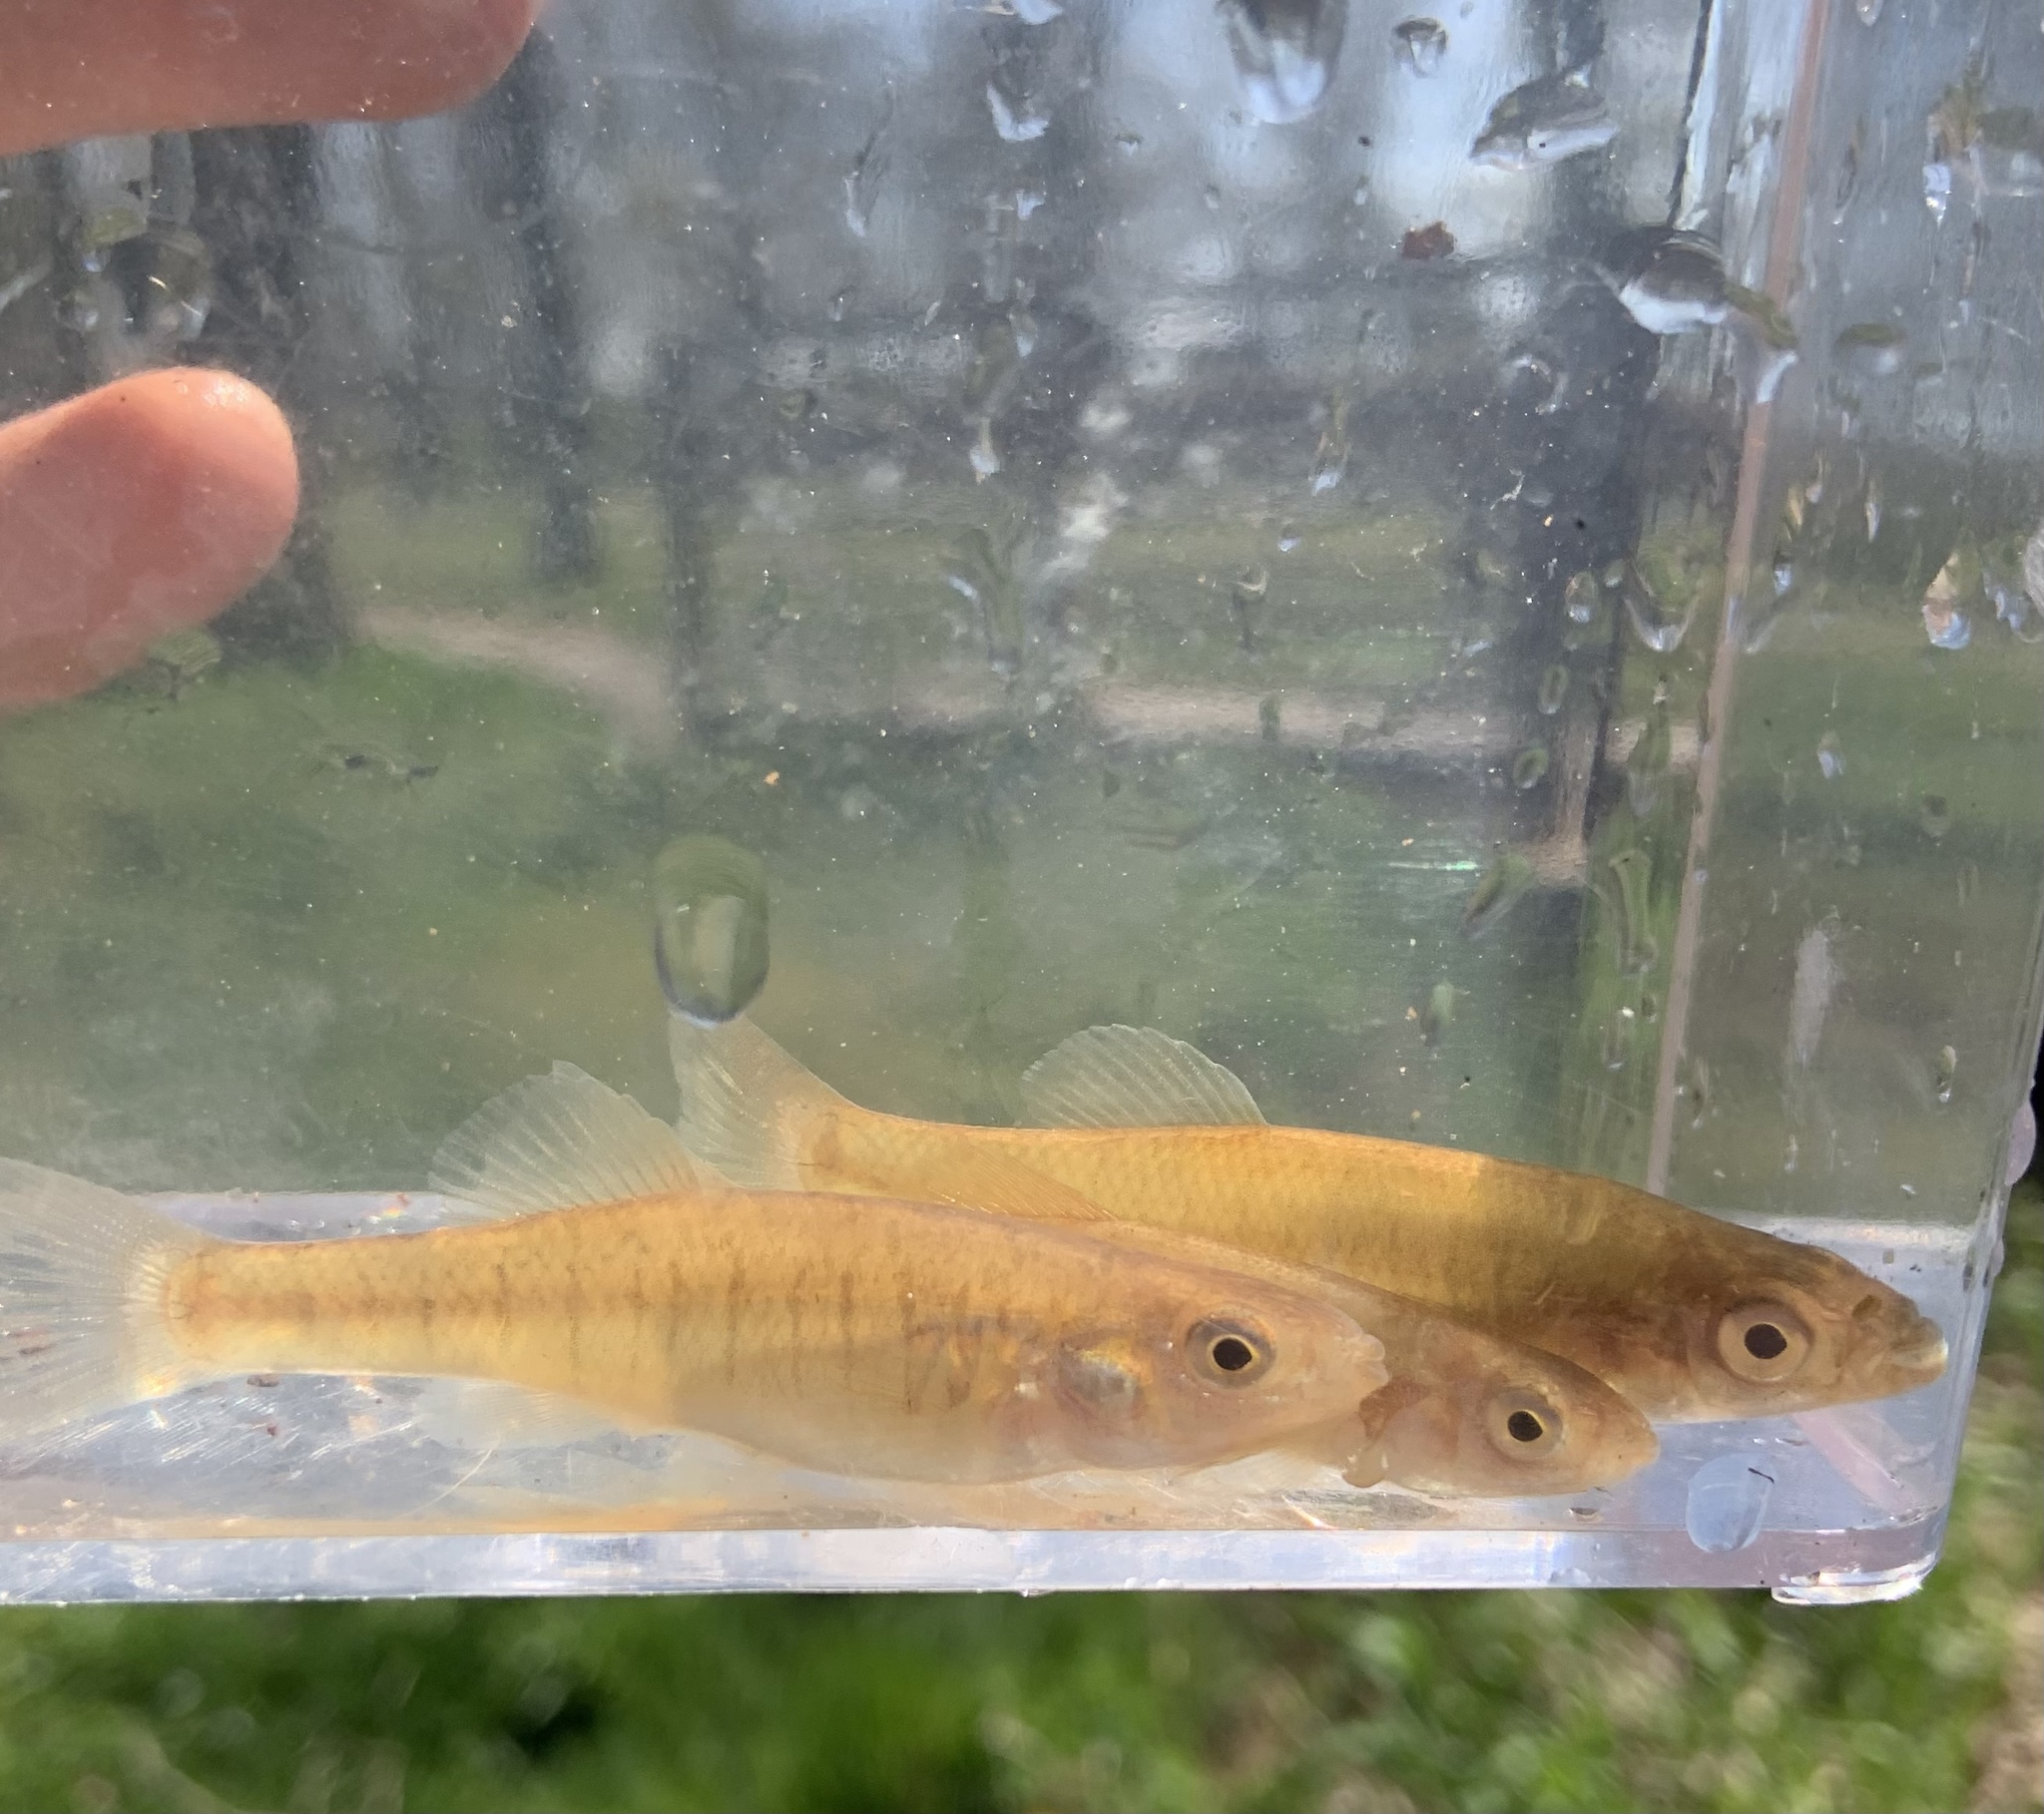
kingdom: Animalia
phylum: Chordata
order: Cyprinodontiformes
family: Fundulidae
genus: Fundulus
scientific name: Fundulus diaphanus
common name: Banded killifish
